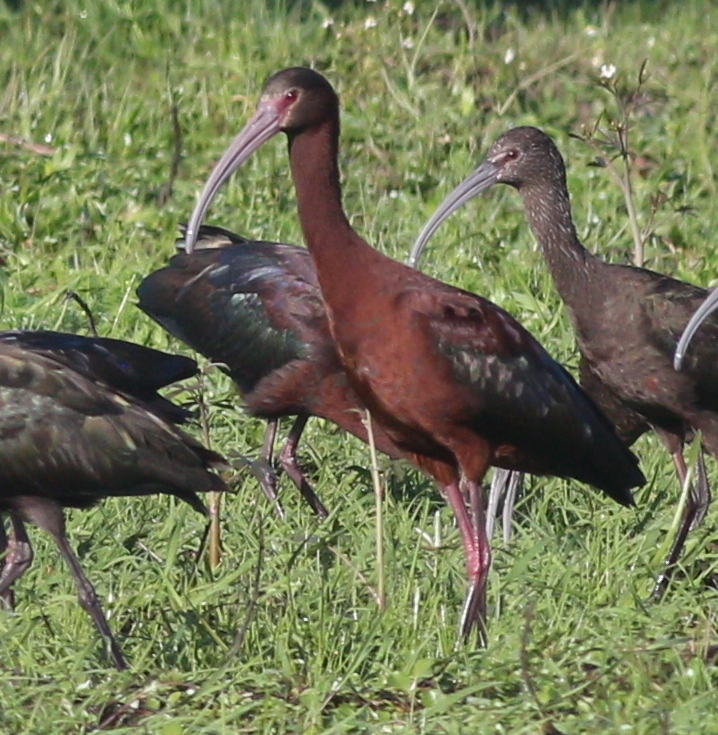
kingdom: Animalia
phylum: Chordata
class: Aves
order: Pelecaniformes
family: Threskiornithidae
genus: Plegadis
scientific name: Plegadis chihi
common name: White-faced ibis
